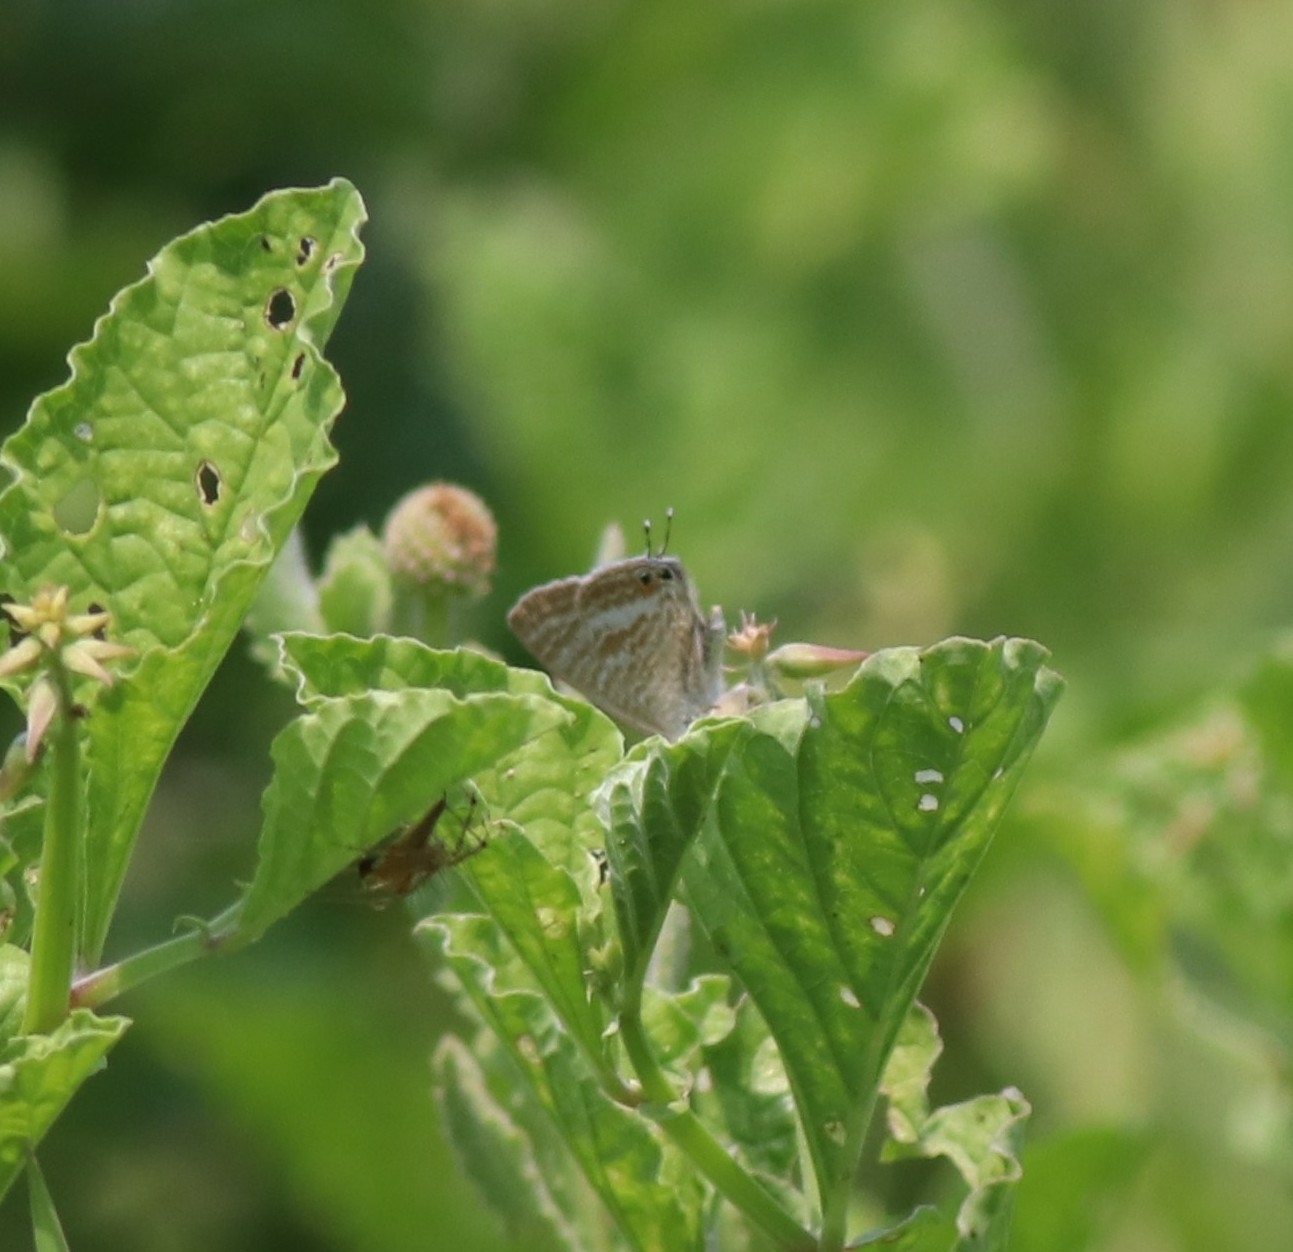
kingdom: Animalia
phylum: Arthropoda
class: Insecta
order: Lepidoptera
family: Lycaenidae
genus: Lampides
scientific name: Lampides boeticus
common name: Long-tailed blue
